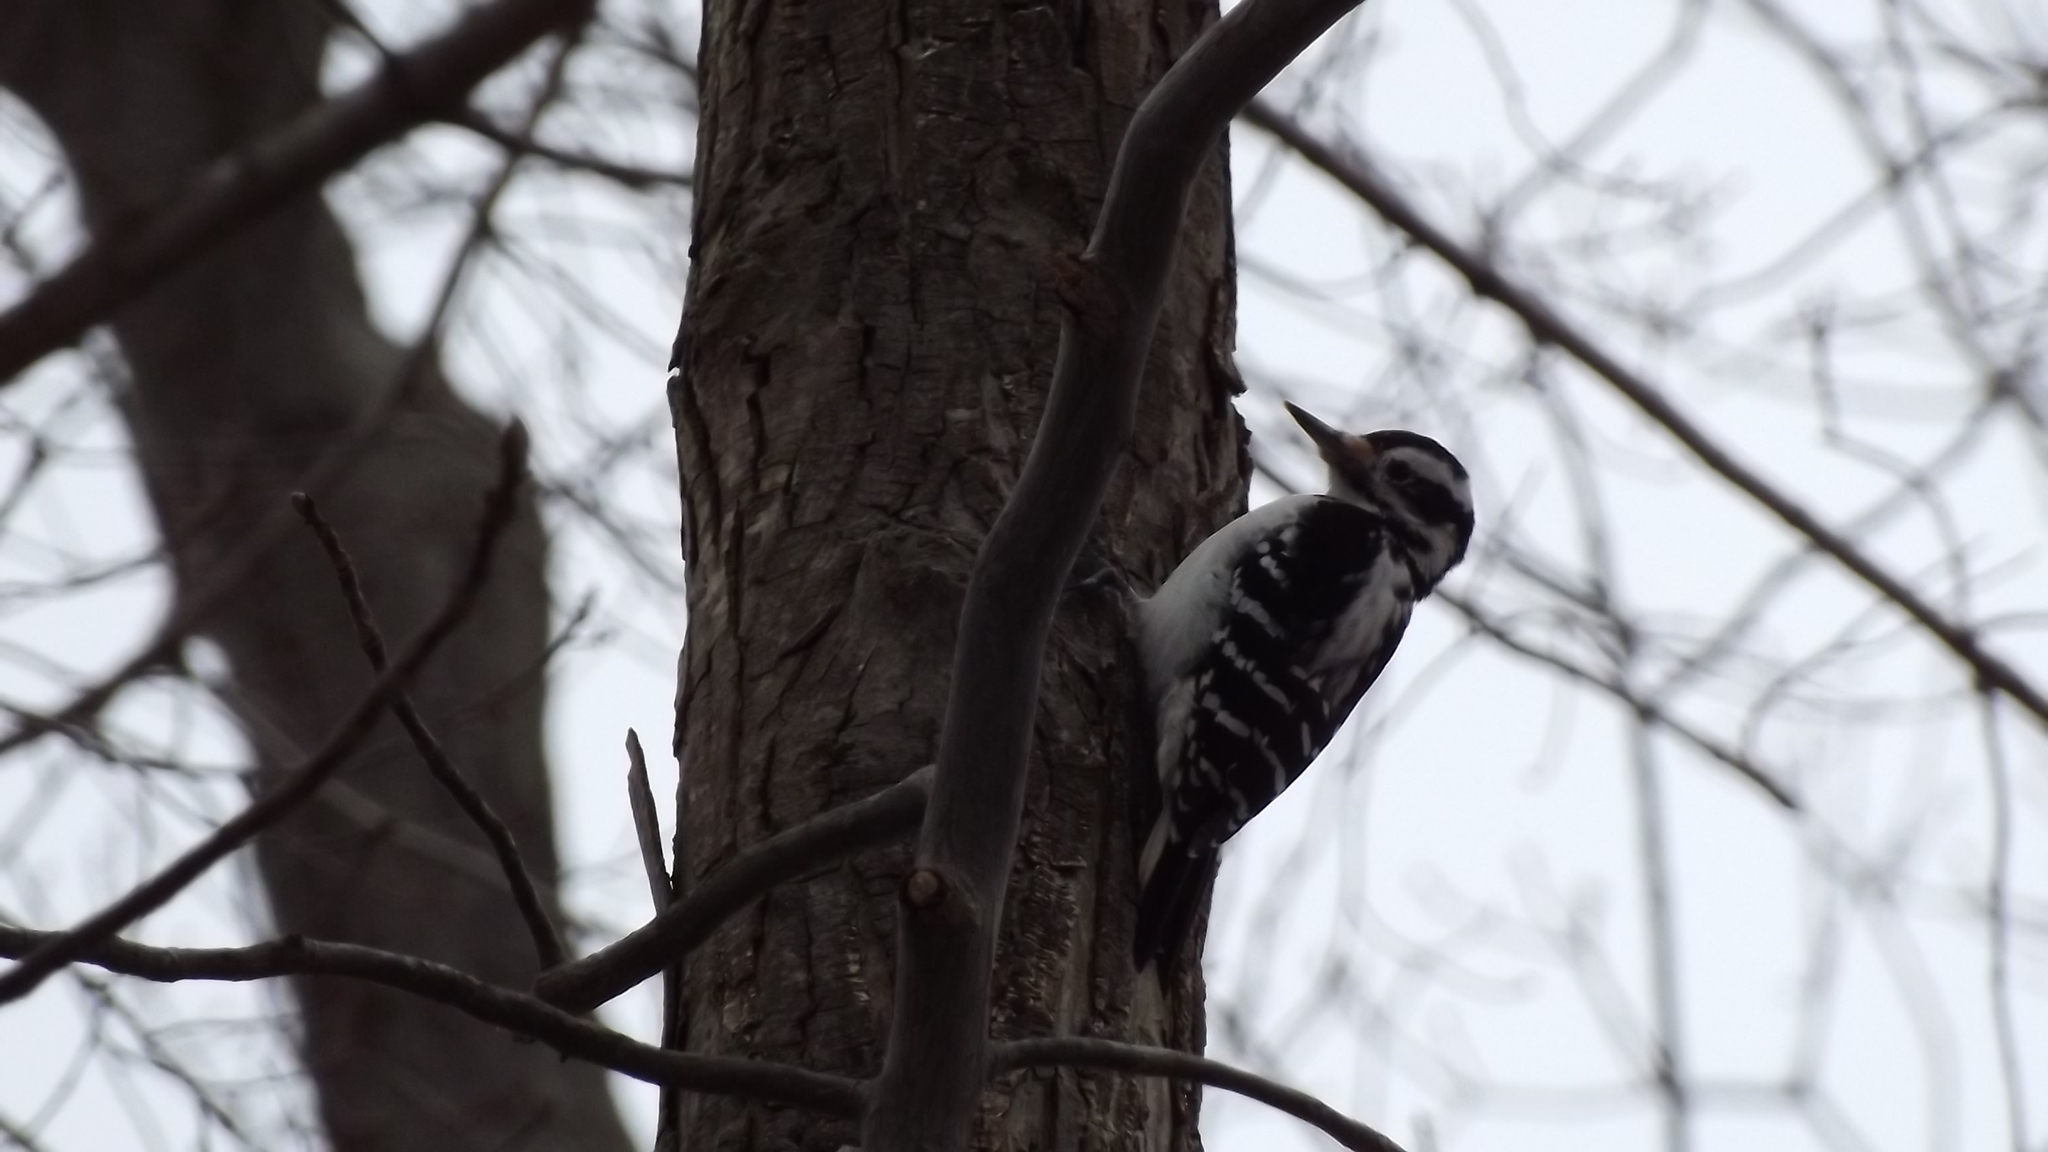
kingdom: Animalia
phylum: Chordata
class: Aves
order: Piciformes
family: Picidae
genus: Leuconotopicus
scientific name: Leuconotopicus villosus
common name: Hairy woodpecker
